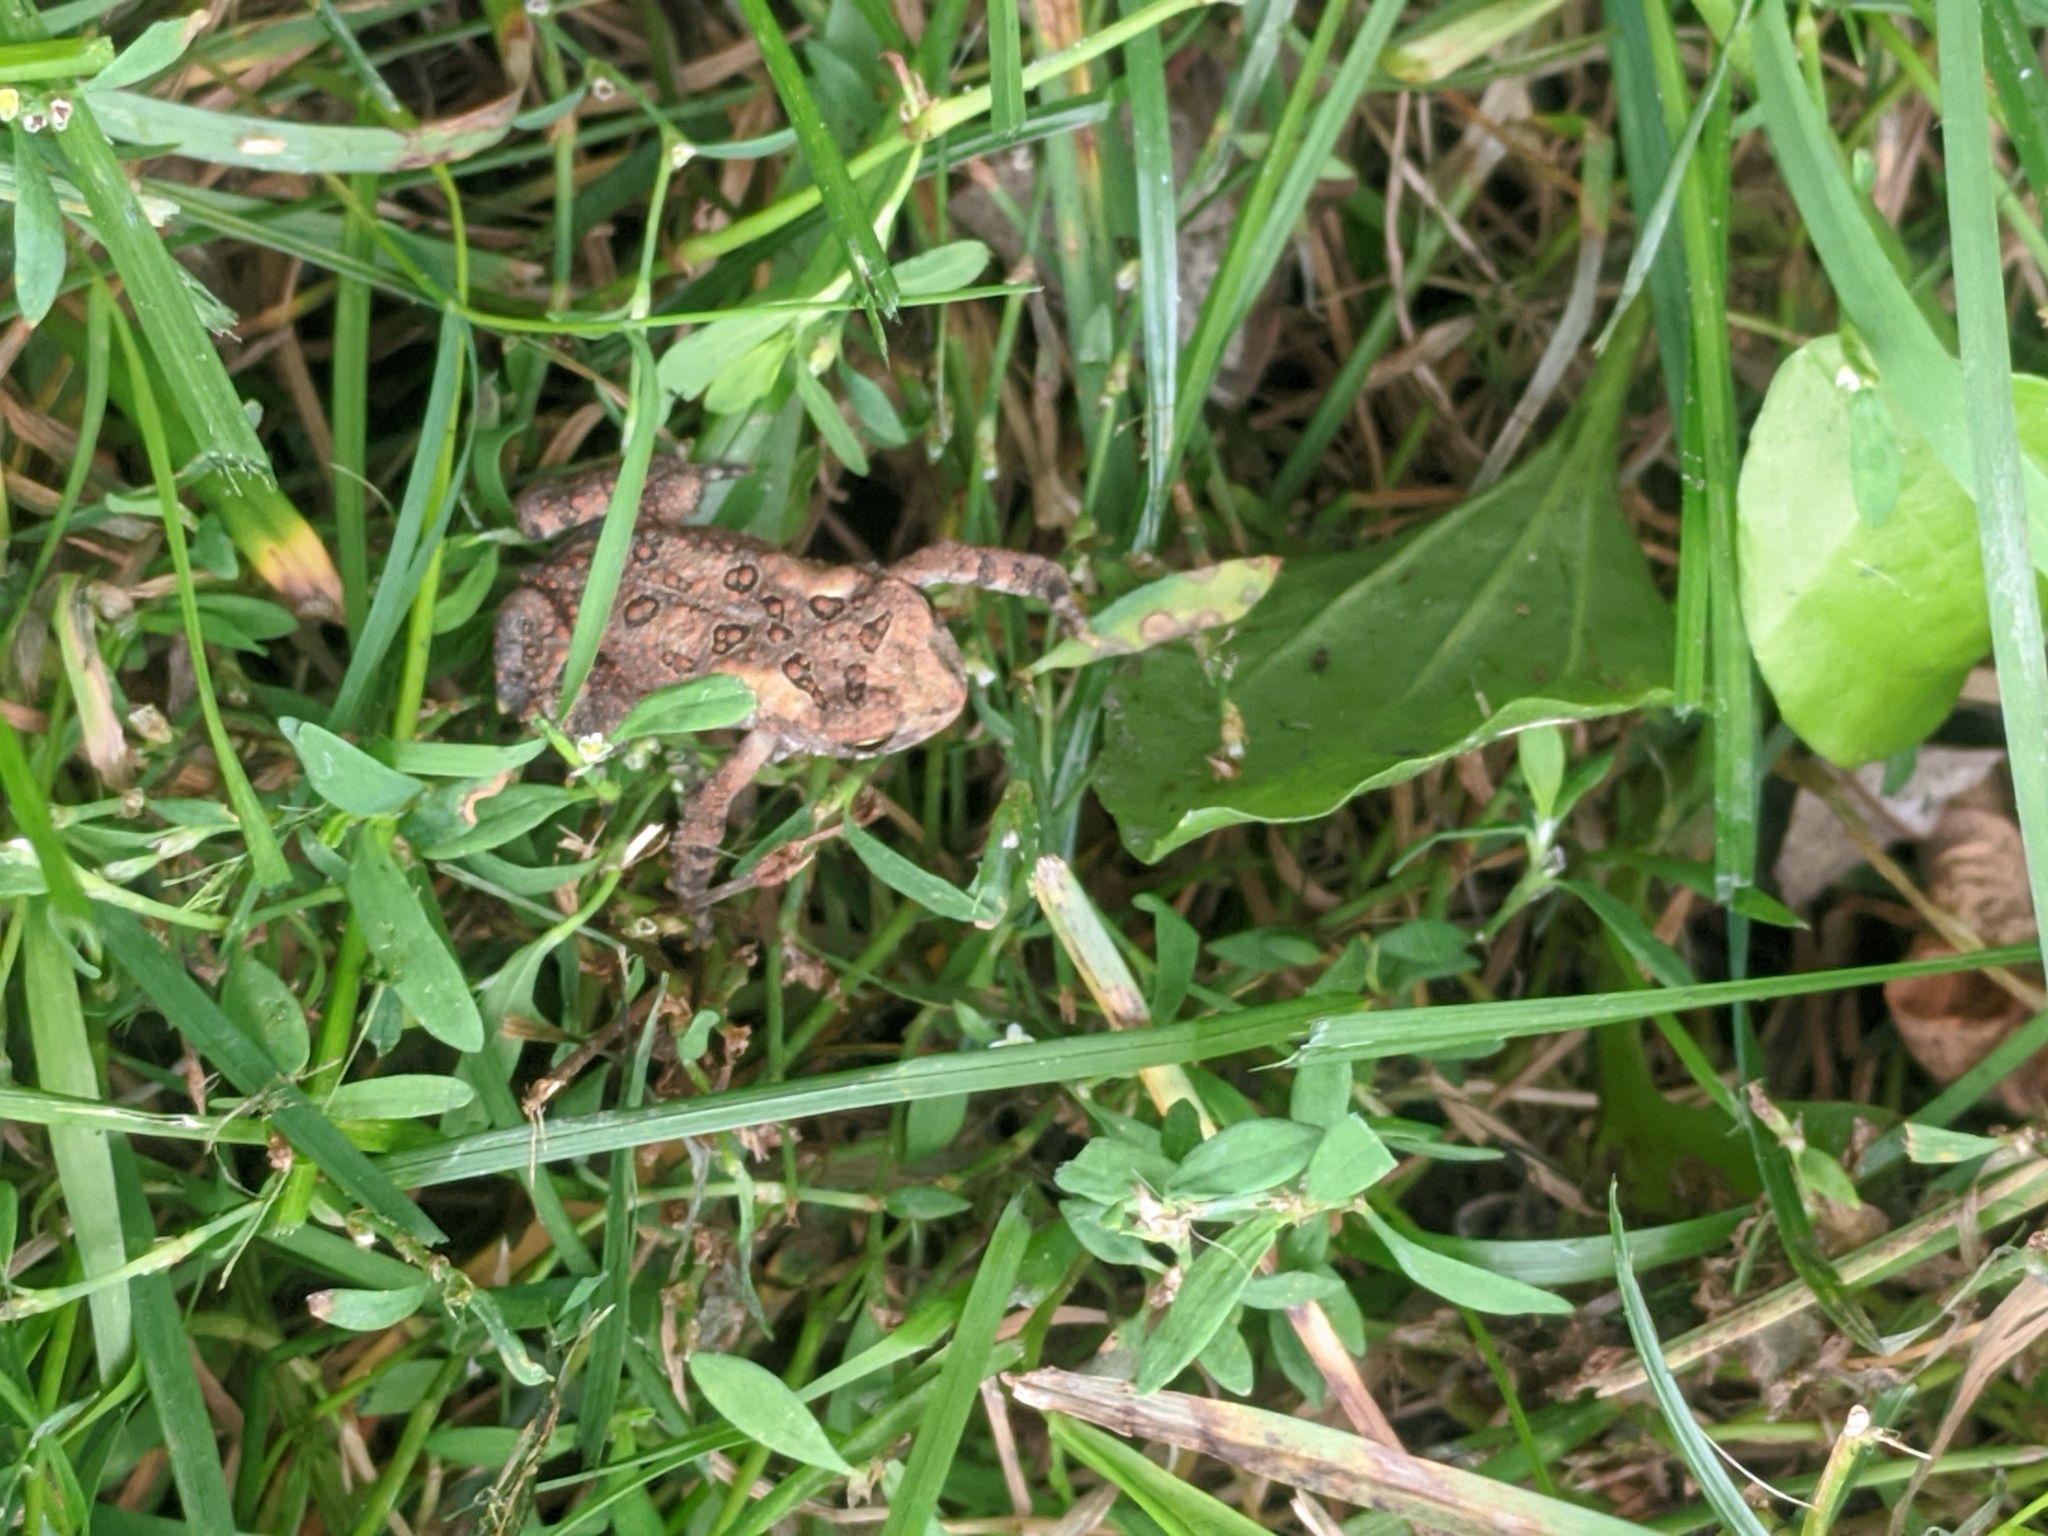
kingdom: Animalia
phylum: Chordata
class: Amphibia
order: Anura
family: Bufonidae
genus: Anaxyrus
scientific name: Anaxyrus americanus
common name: American toad
